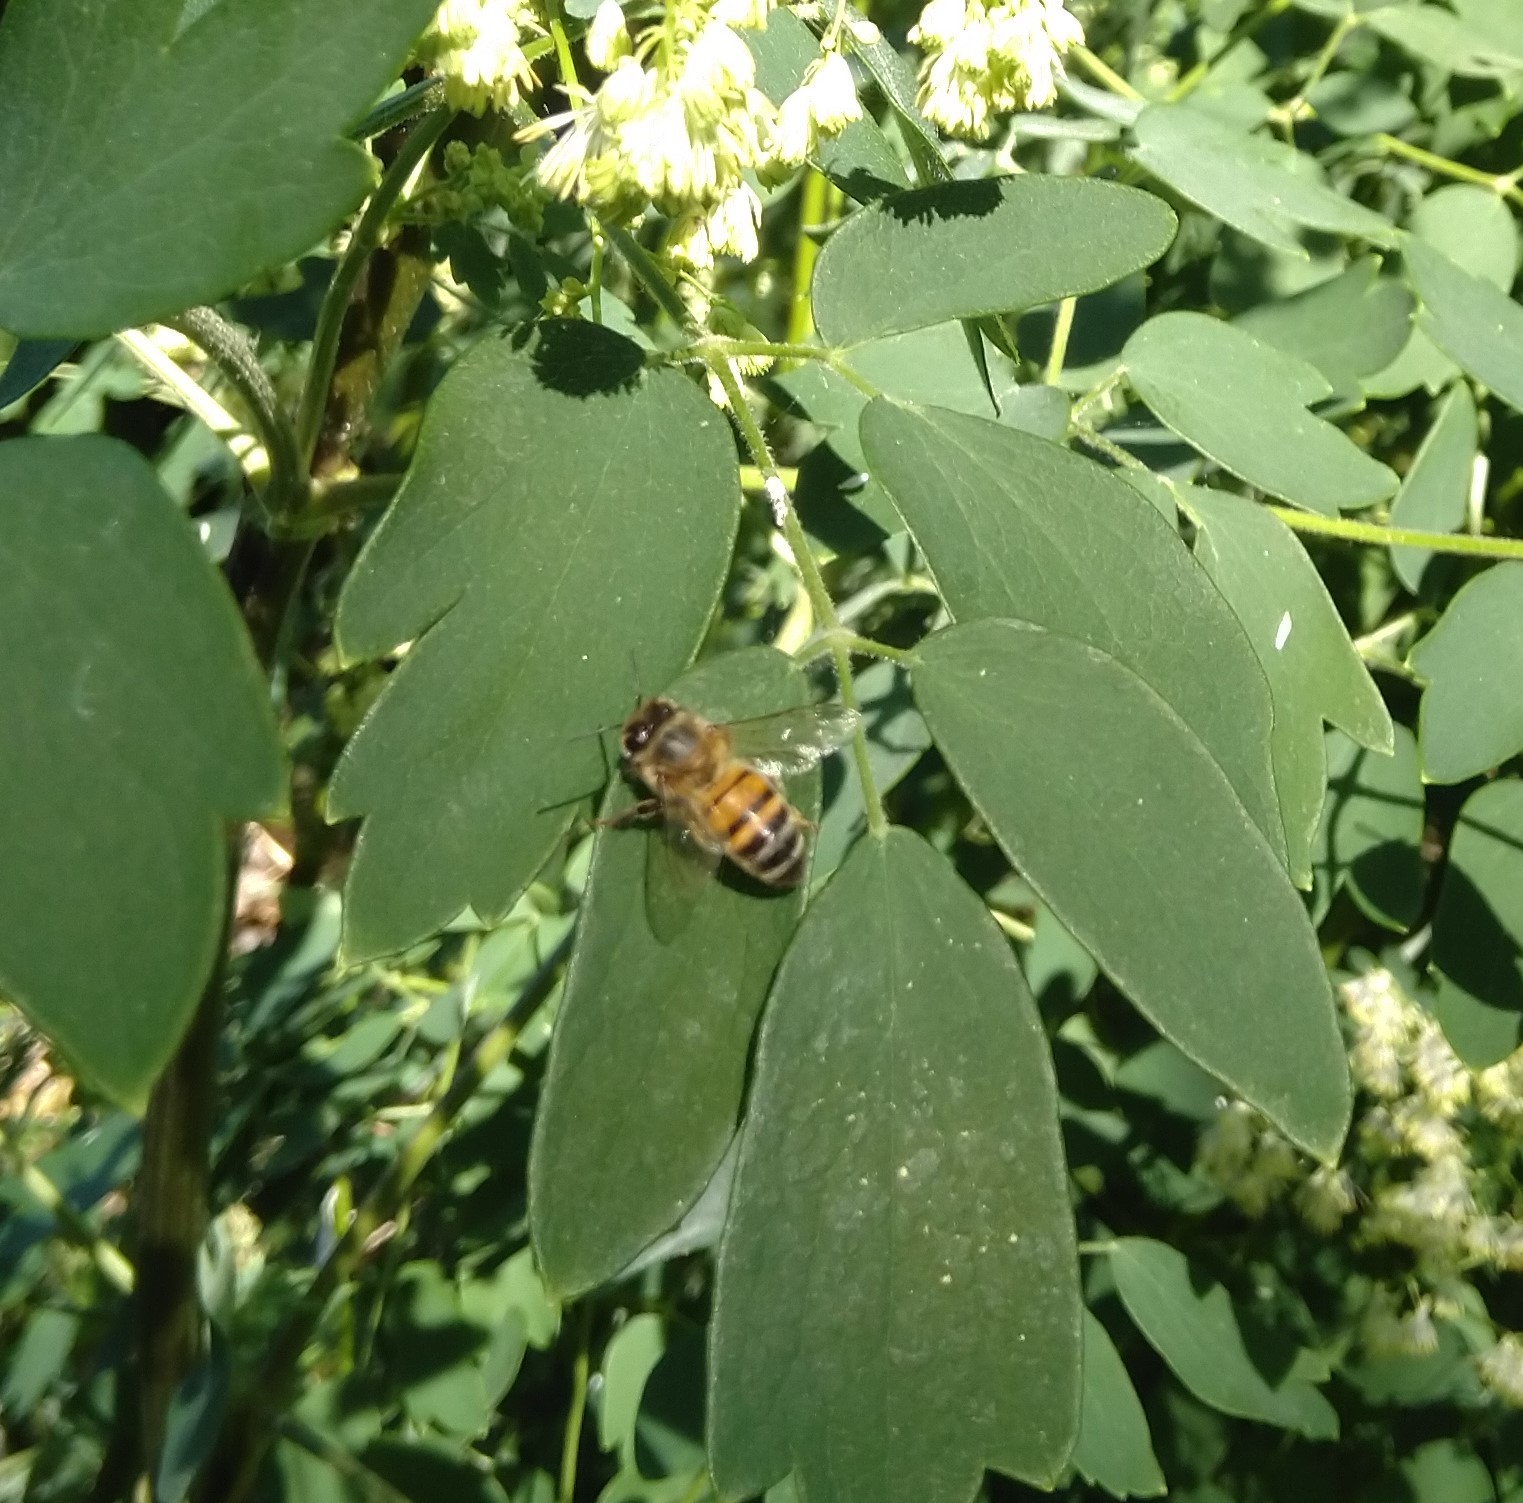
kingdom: Animalia
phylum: Arthropoda
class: Insecta
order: Hymenoptera
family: Apidae
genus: Apis
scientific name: Apis mellifera
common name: Honey bee
